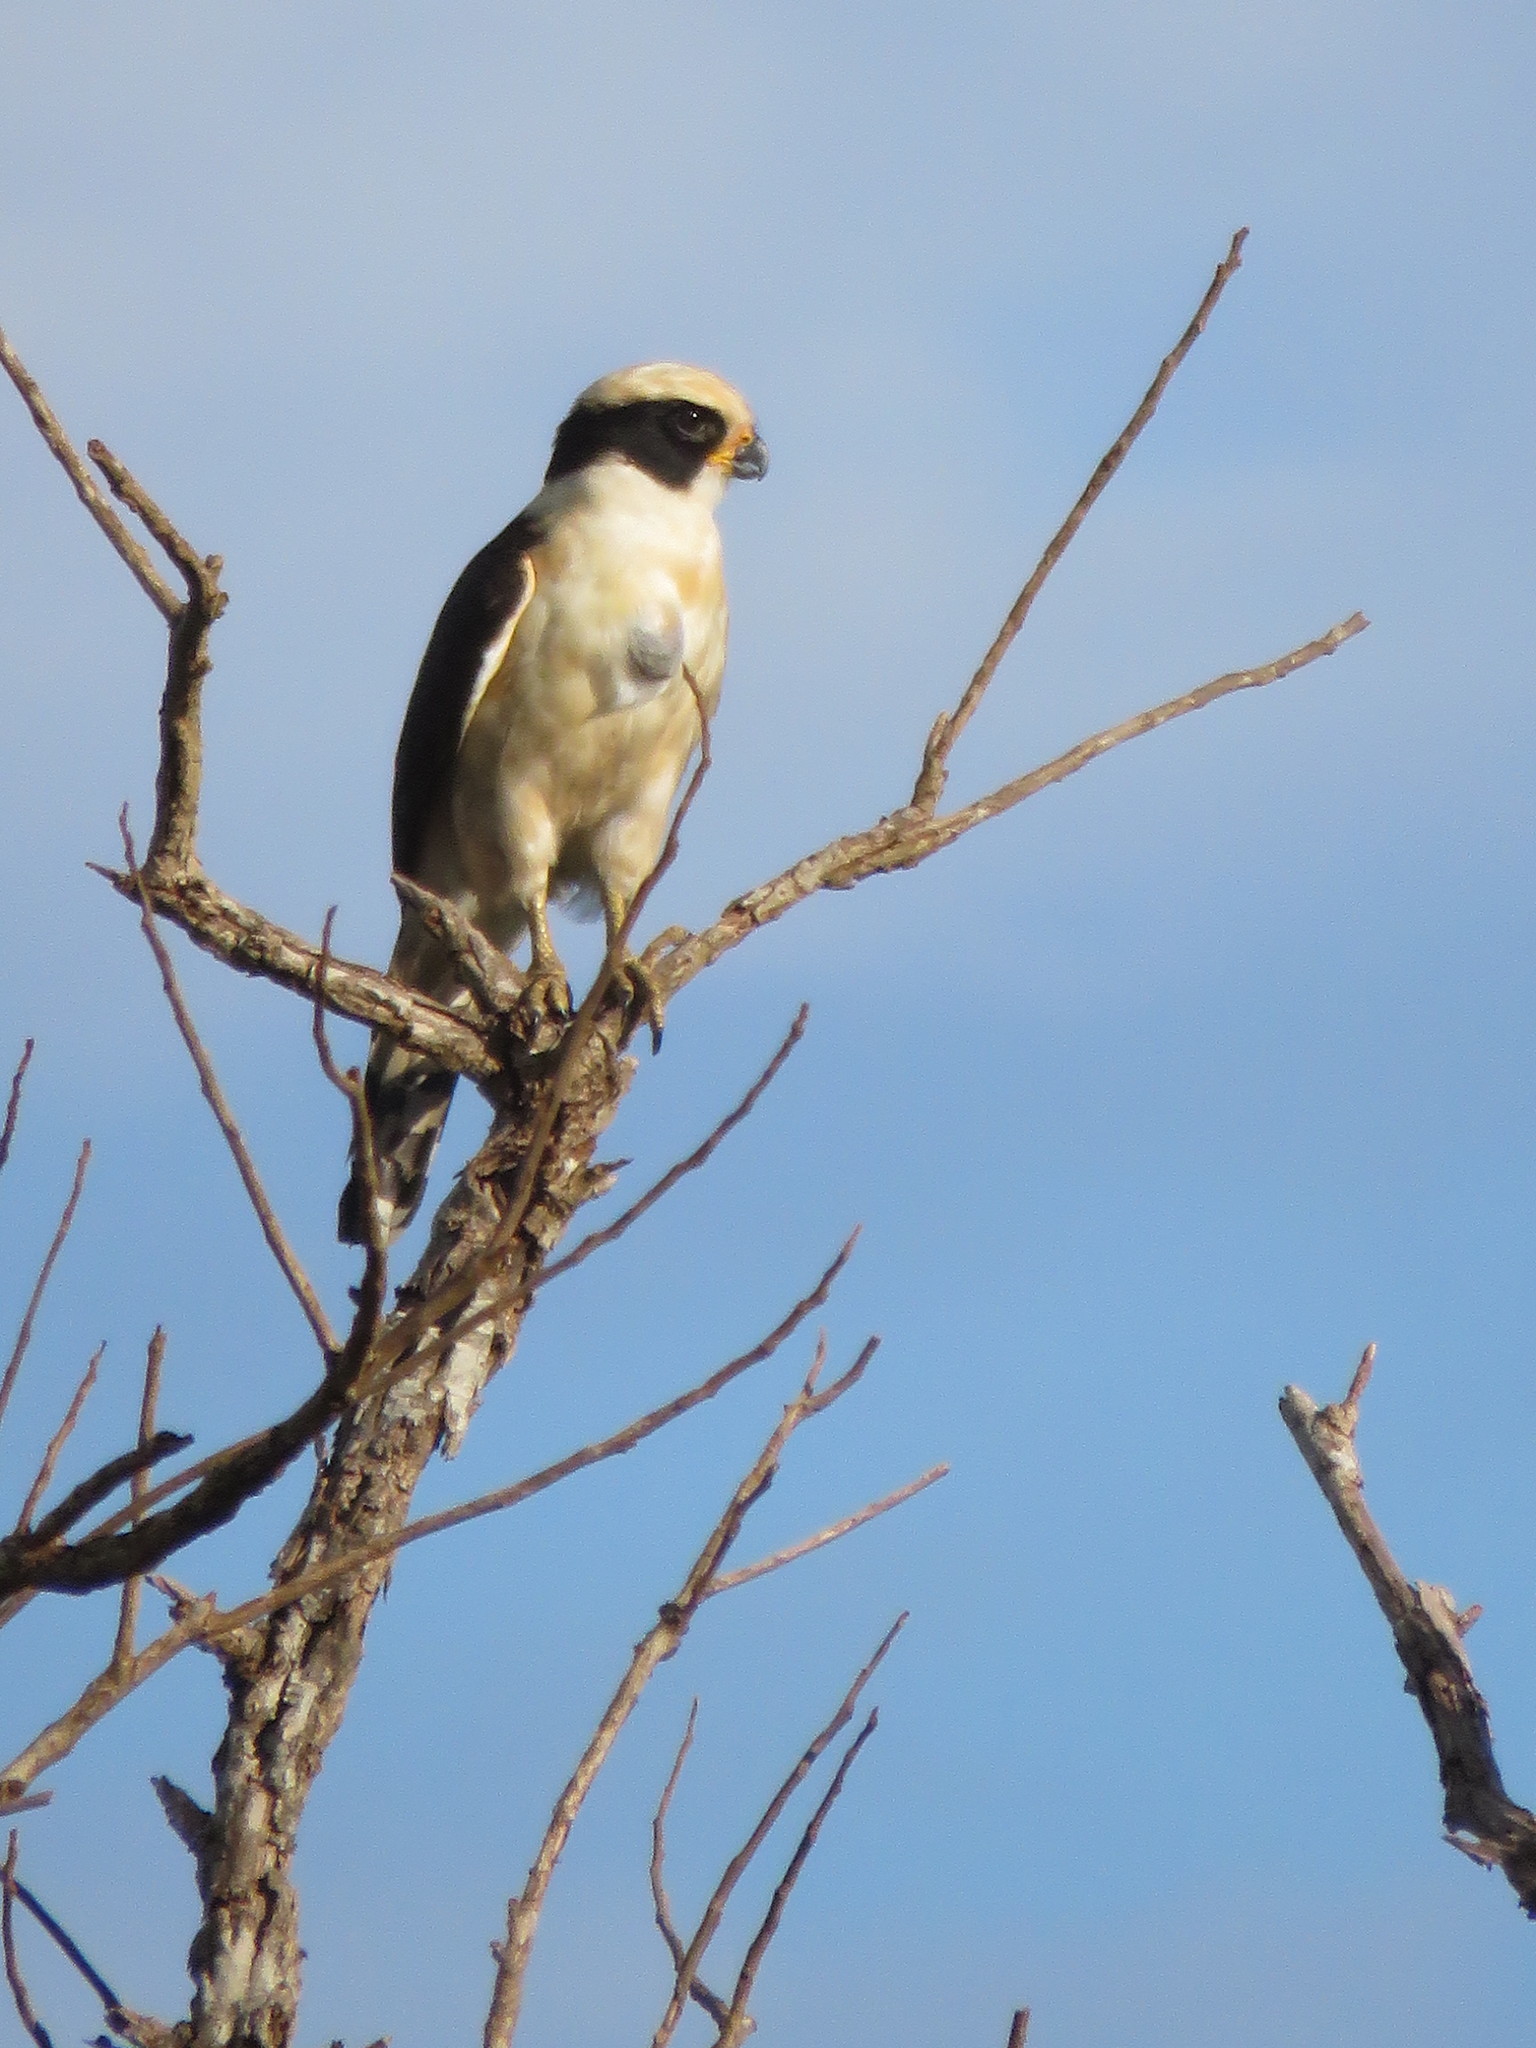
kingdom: Animalia
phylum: Chordata
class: Aves
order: Falconiformes
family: Falconidae
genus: Herpetotheres
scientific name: Herpetotheres cachinnans
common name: Laughing falcon
